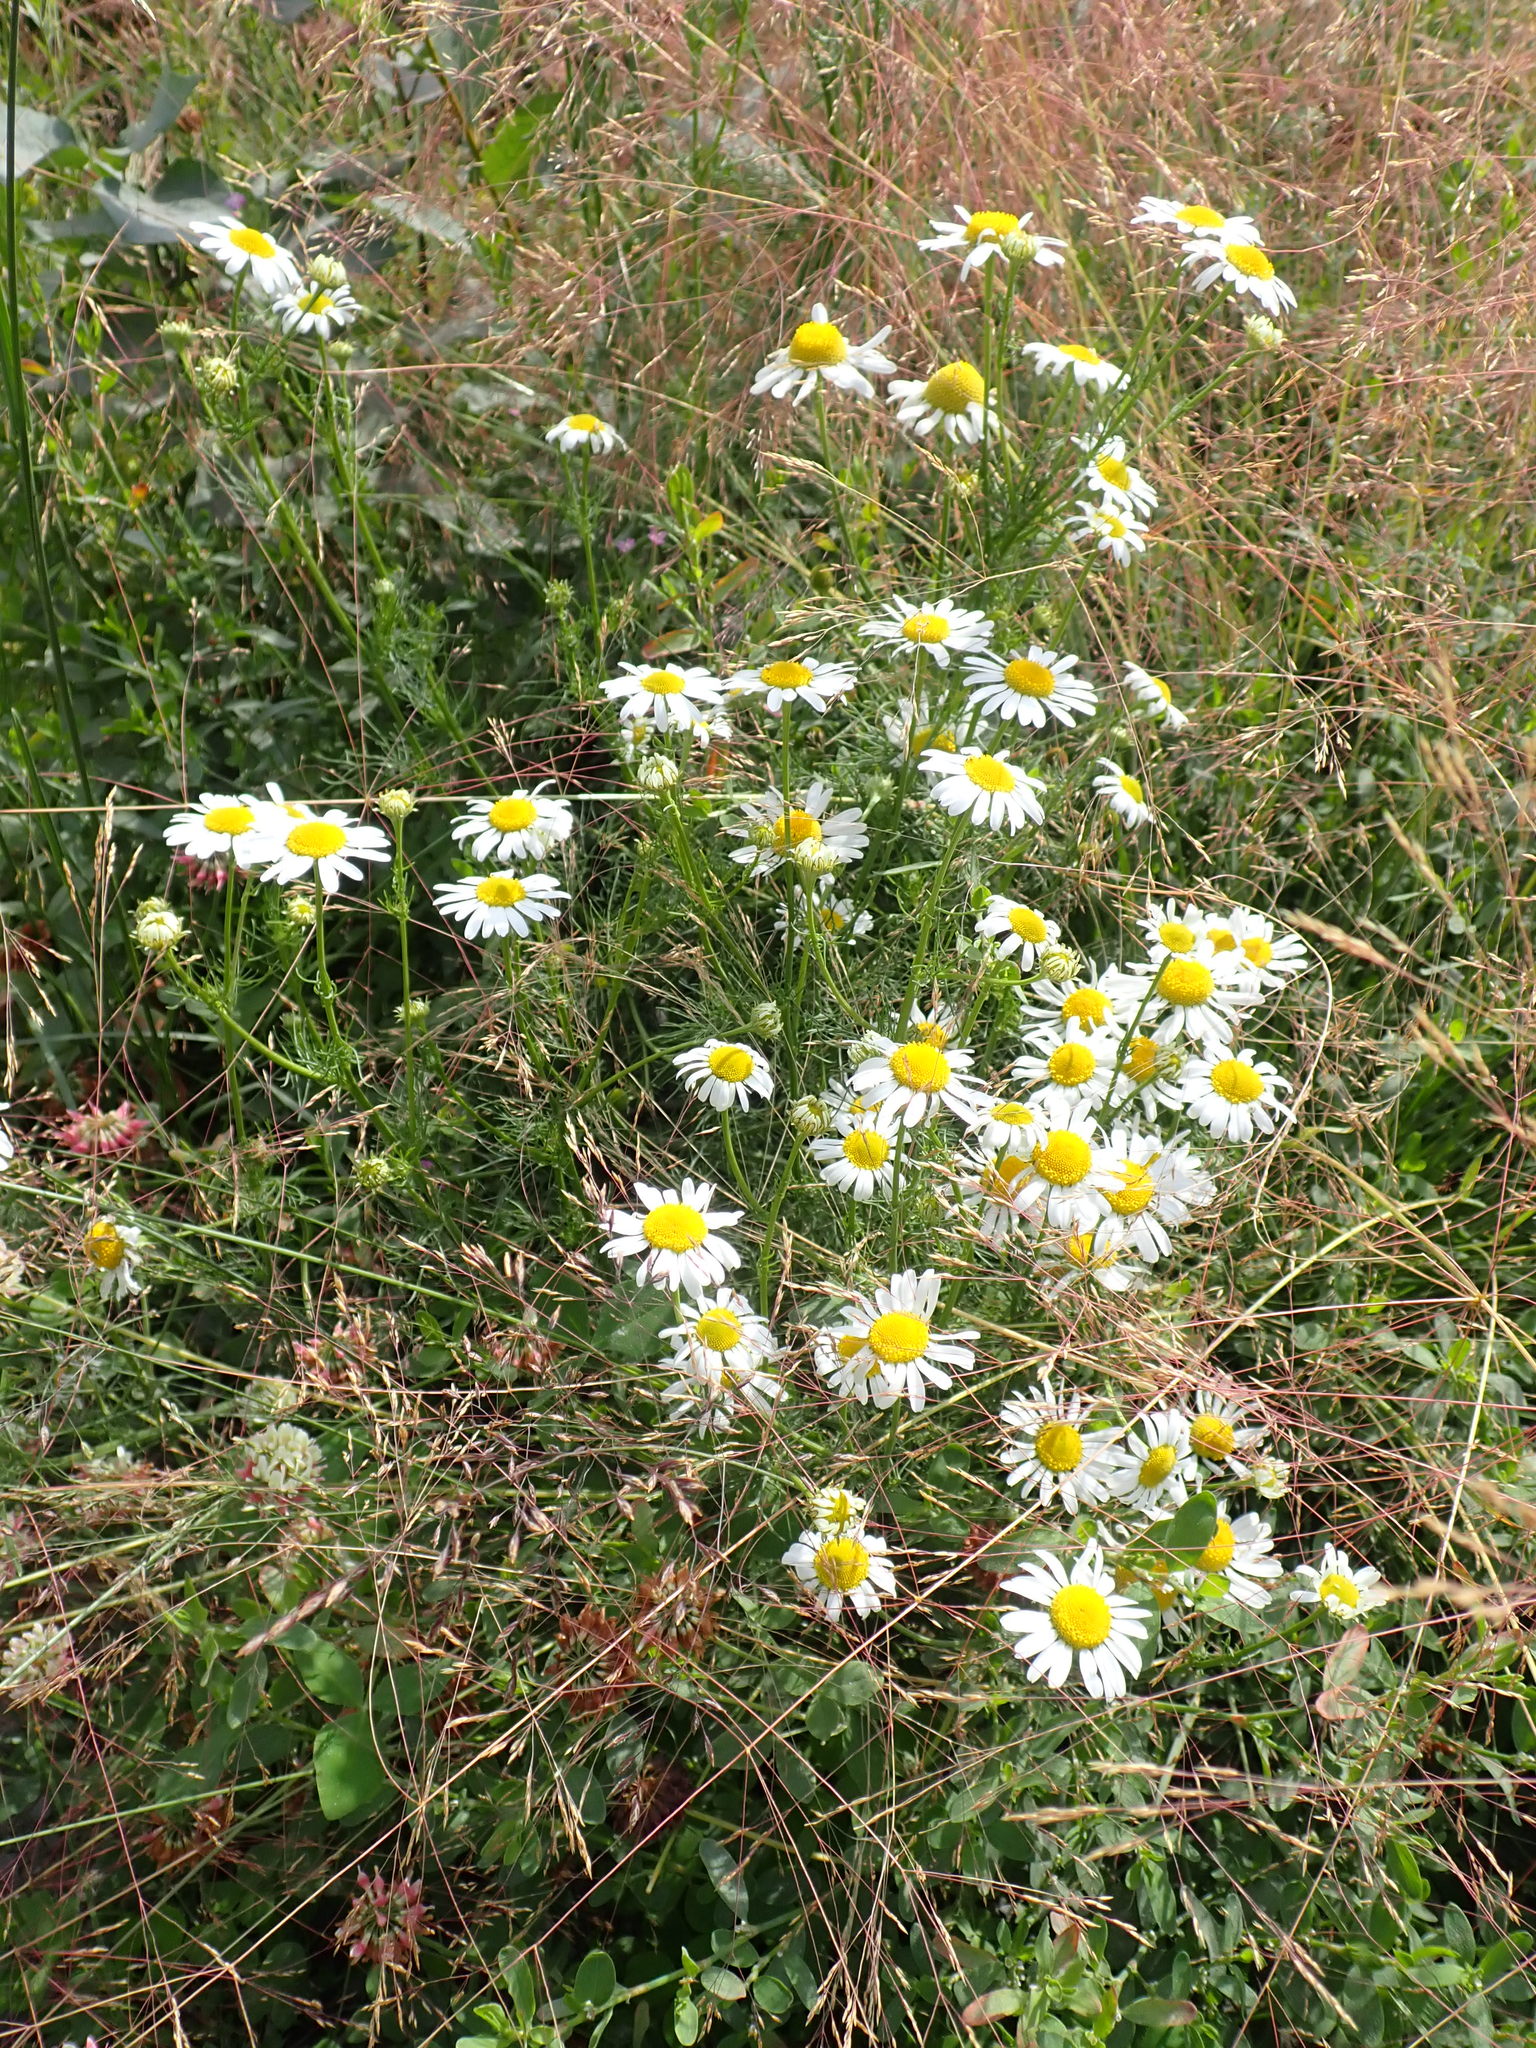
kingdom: Plantae
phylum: Tracheophyta
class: Magnoliopsida
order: Asterales
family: Asteraceae
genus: Tripleurospermum
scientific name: Tripleurospermum inodorum
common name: Scentless mayweed
